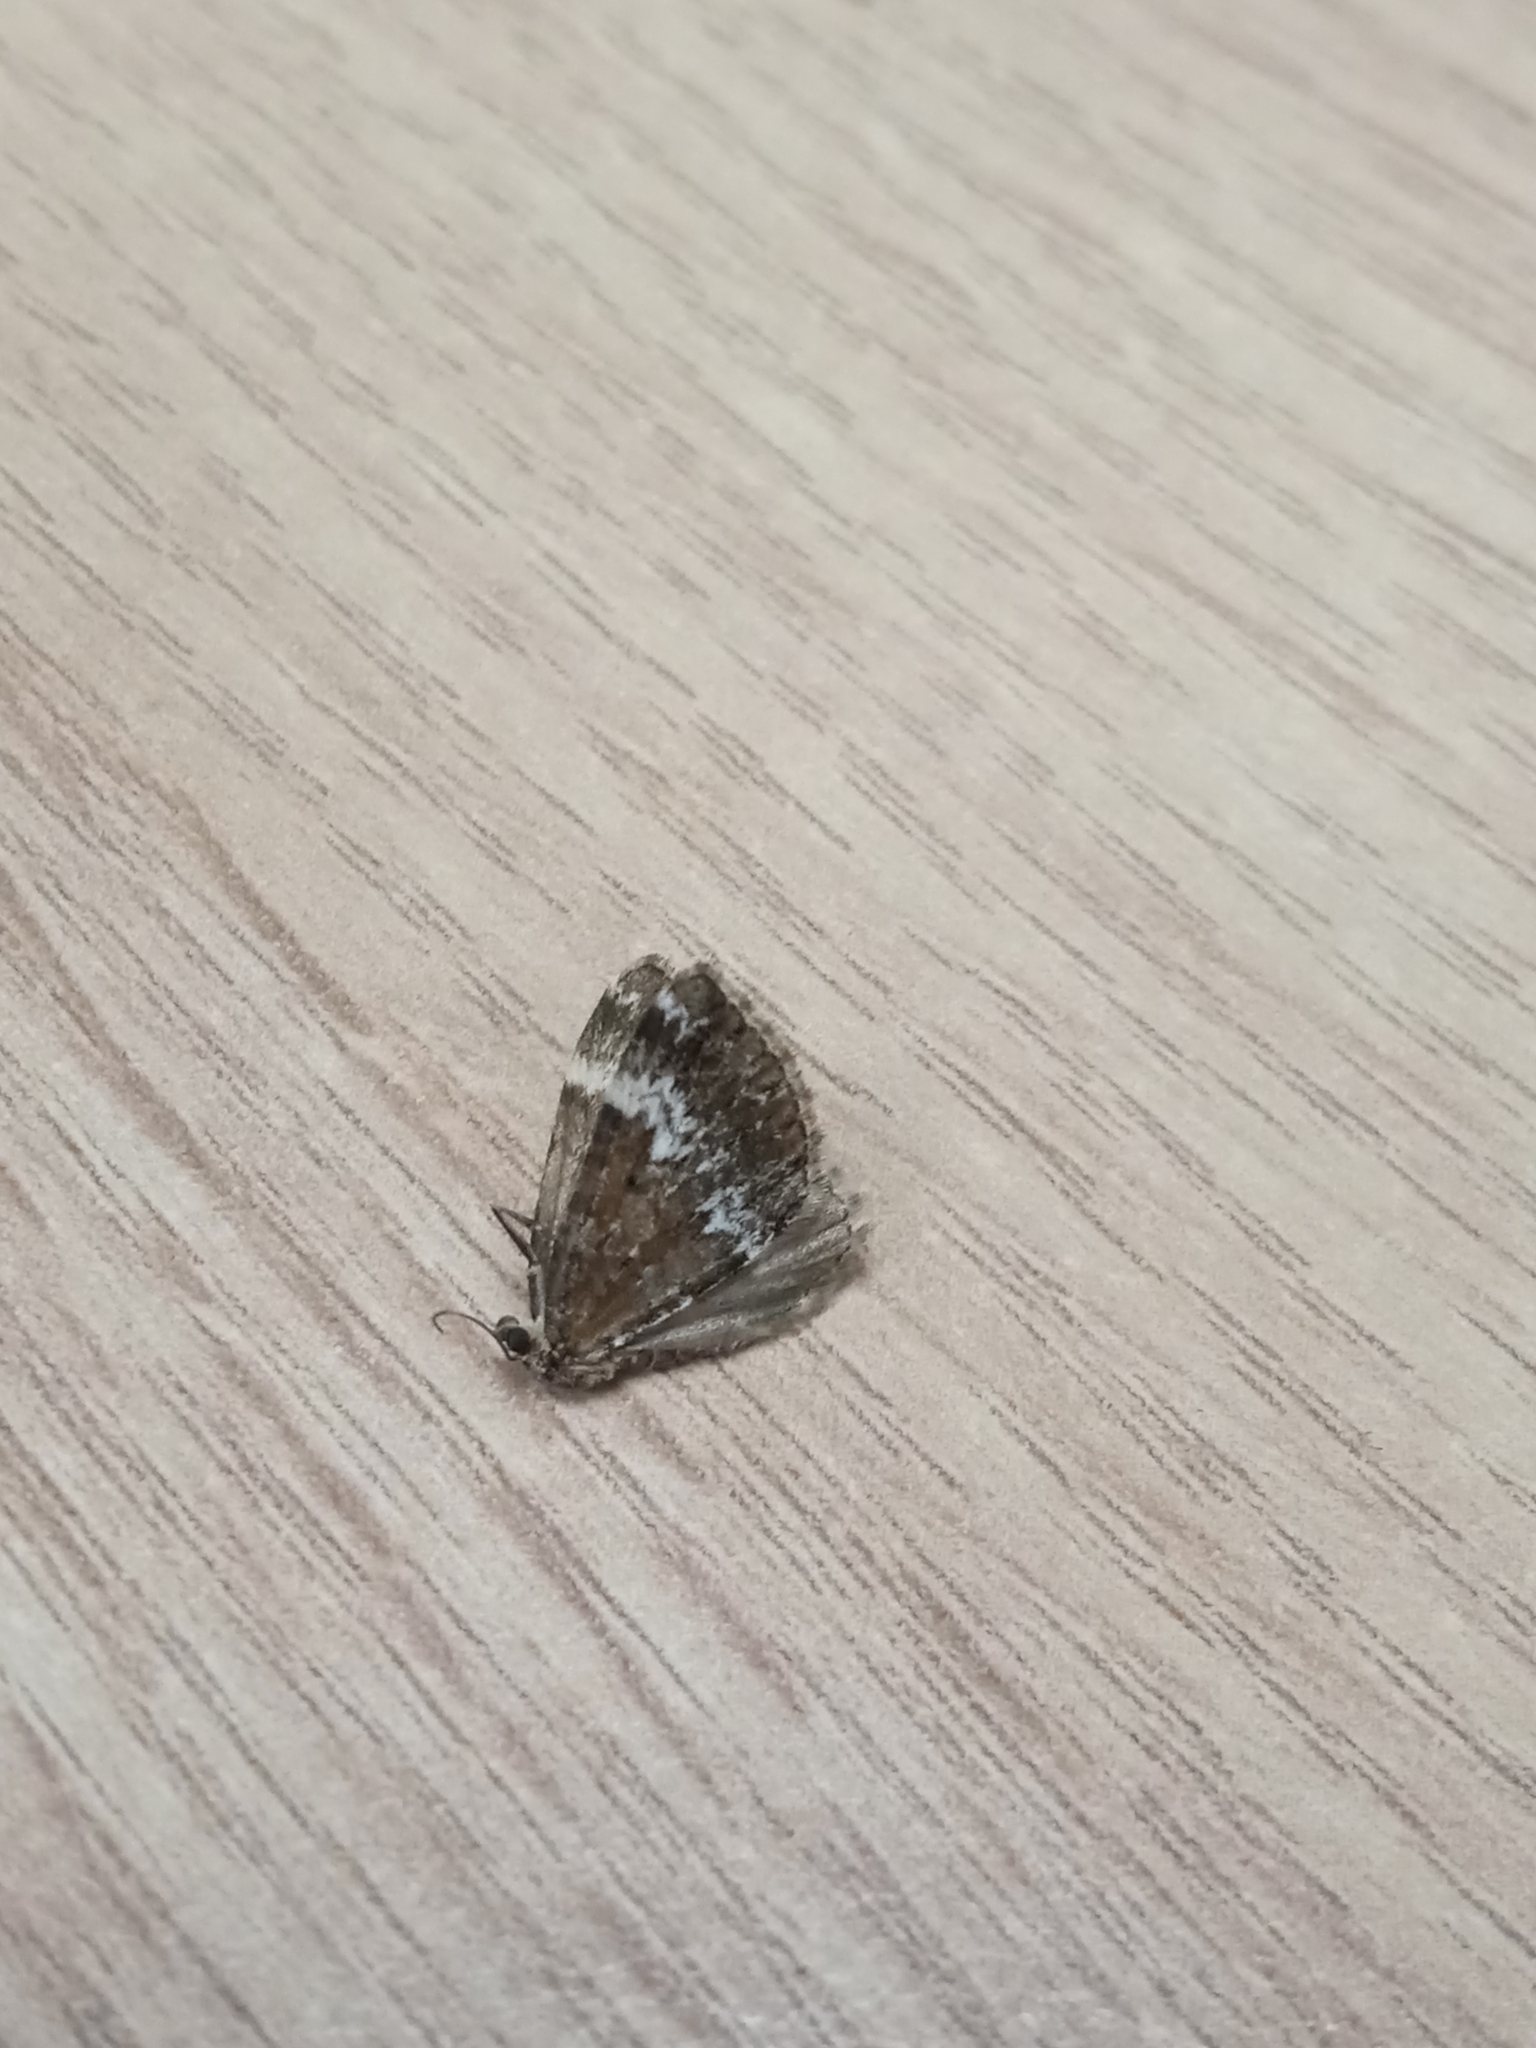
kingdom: Animalia
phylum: Arthropoda
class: Insecta
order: Lepidoptera
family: Geometridae
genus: Perizoma
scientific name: Perizoma alchemillata
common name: Small rivulet
